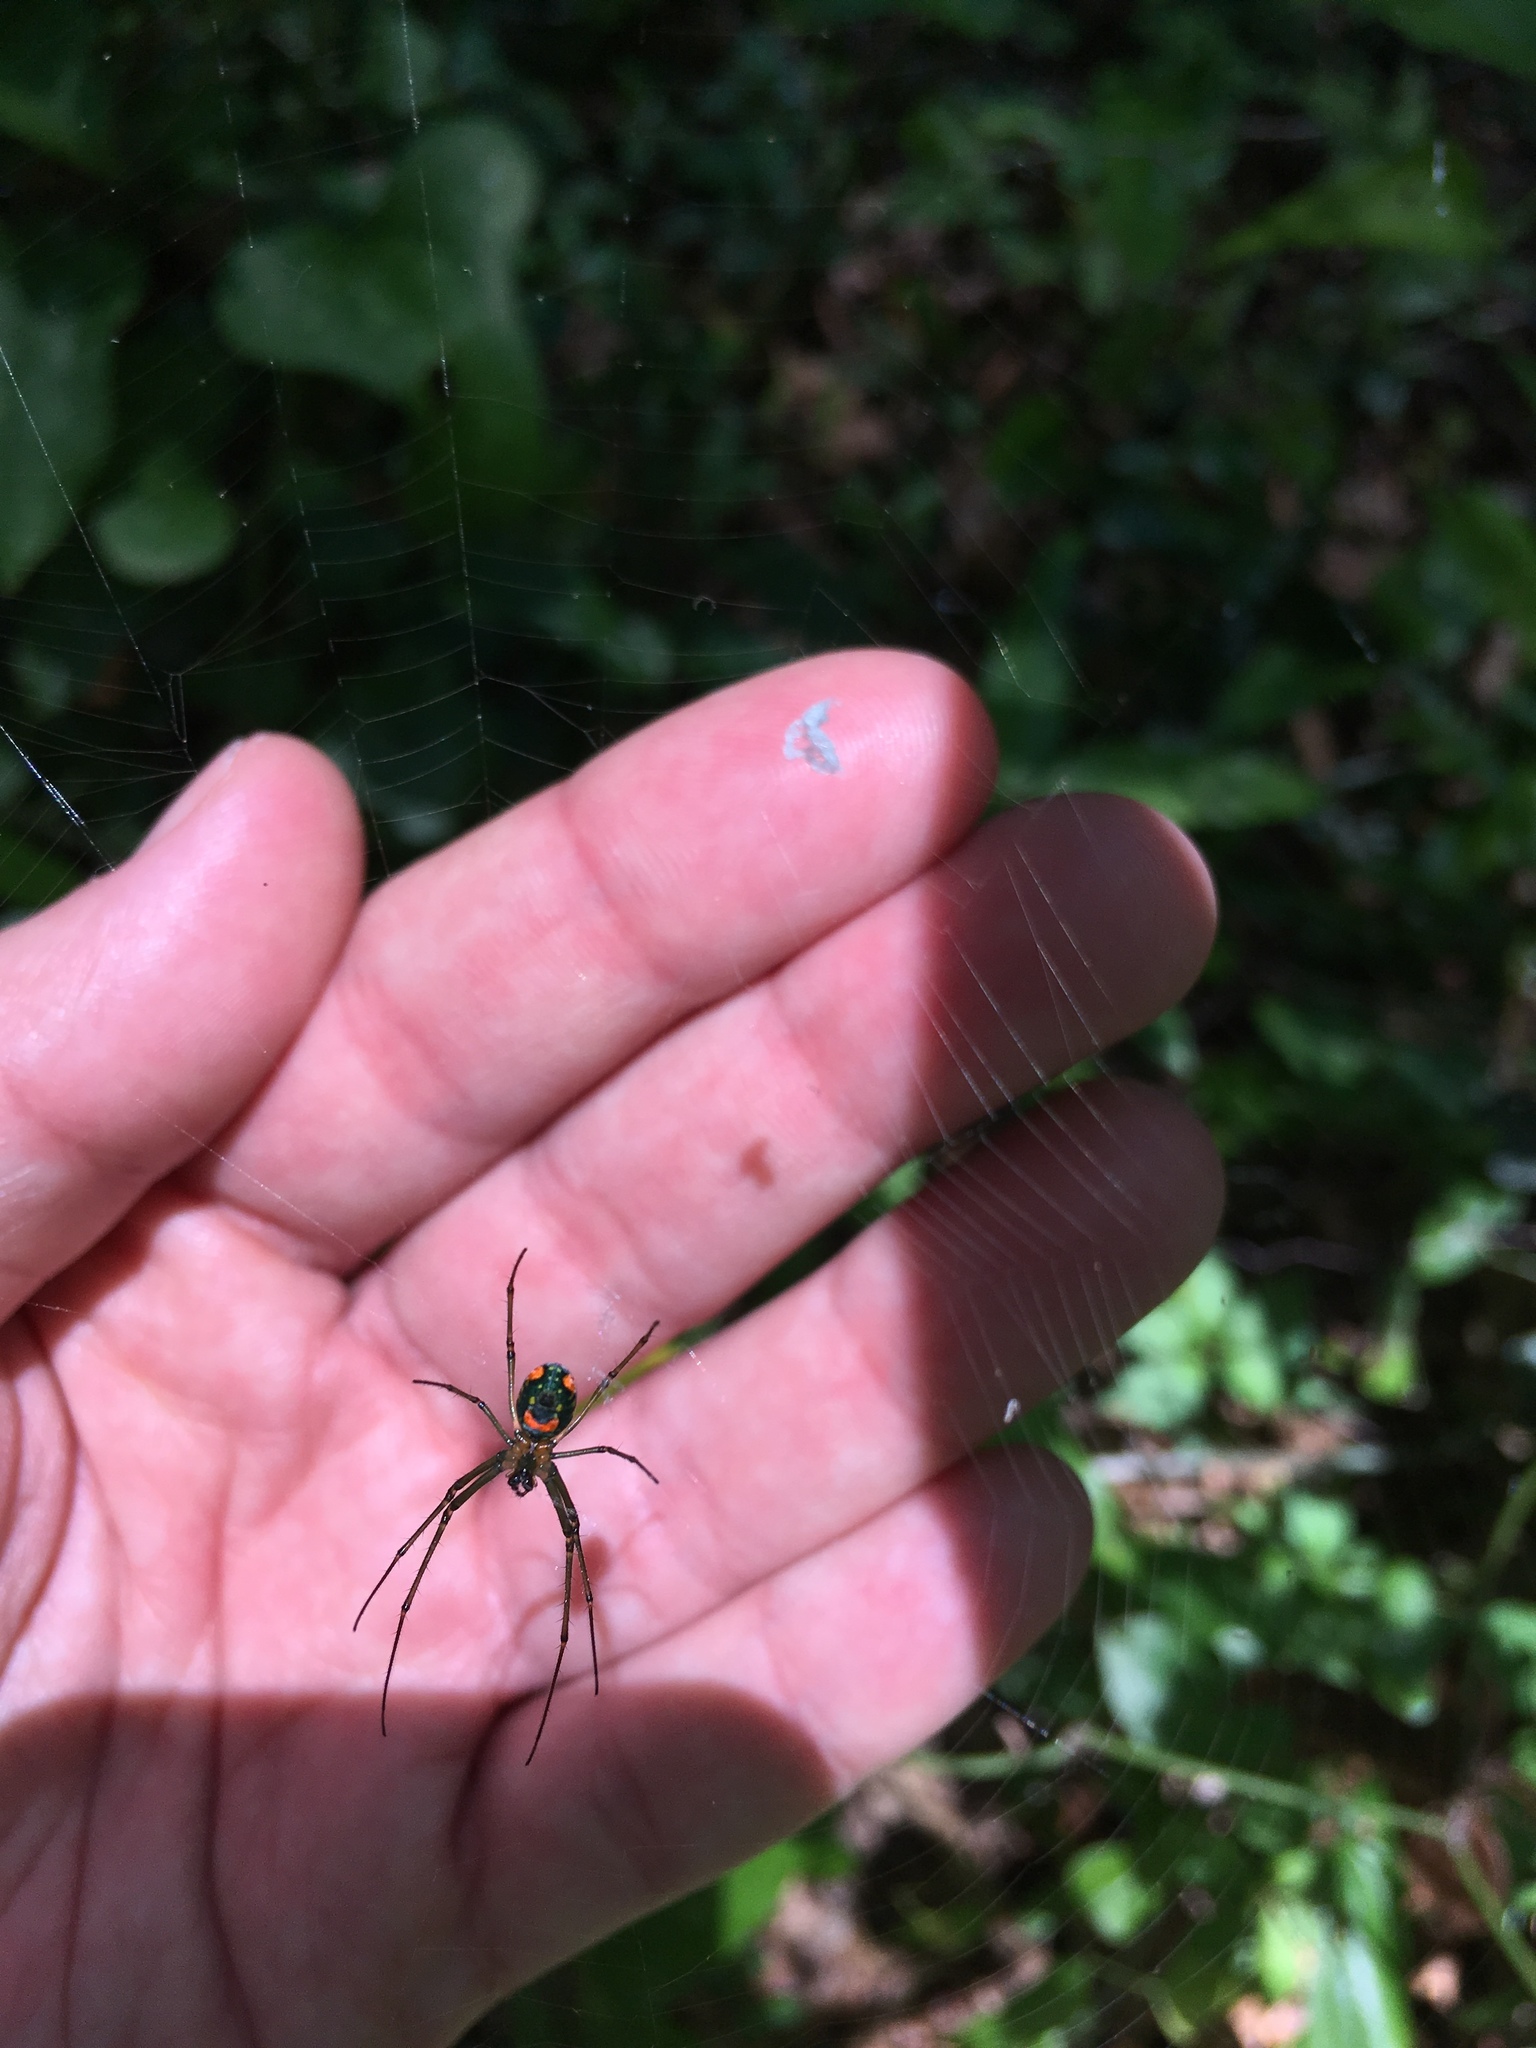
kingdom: Animalia
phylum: Arthropoda
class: Arachnida
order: Araneae
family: Tetragnathidae
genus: Leucauge
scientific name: Leucauge argyrobapta
